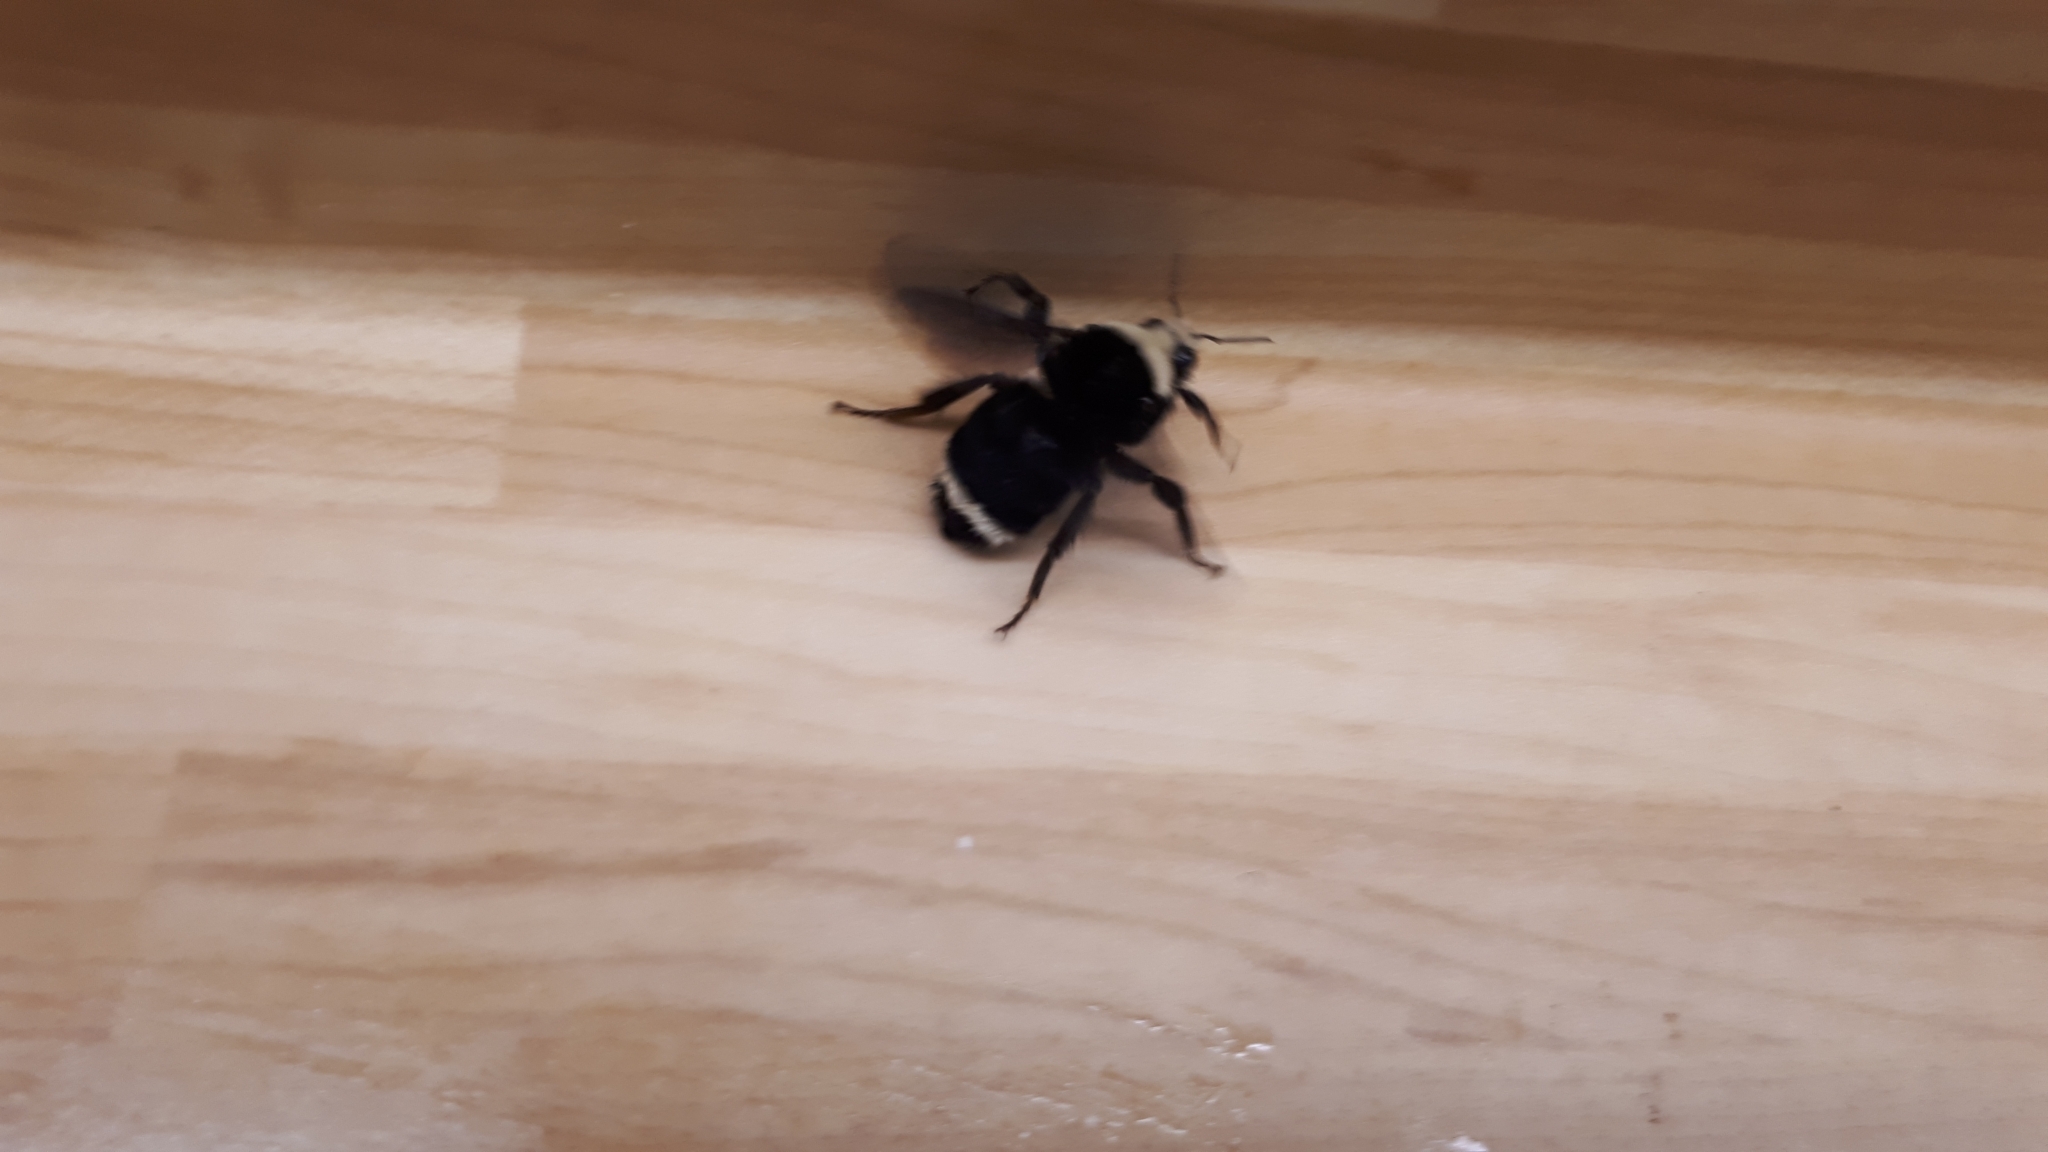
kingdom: Animalia
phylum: Arthropoda
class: Insecta
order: Hymenoptera
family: Apidae
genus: Bombus
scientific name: Bombus vosnesenskii
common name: Vosnesensky bumble bee
